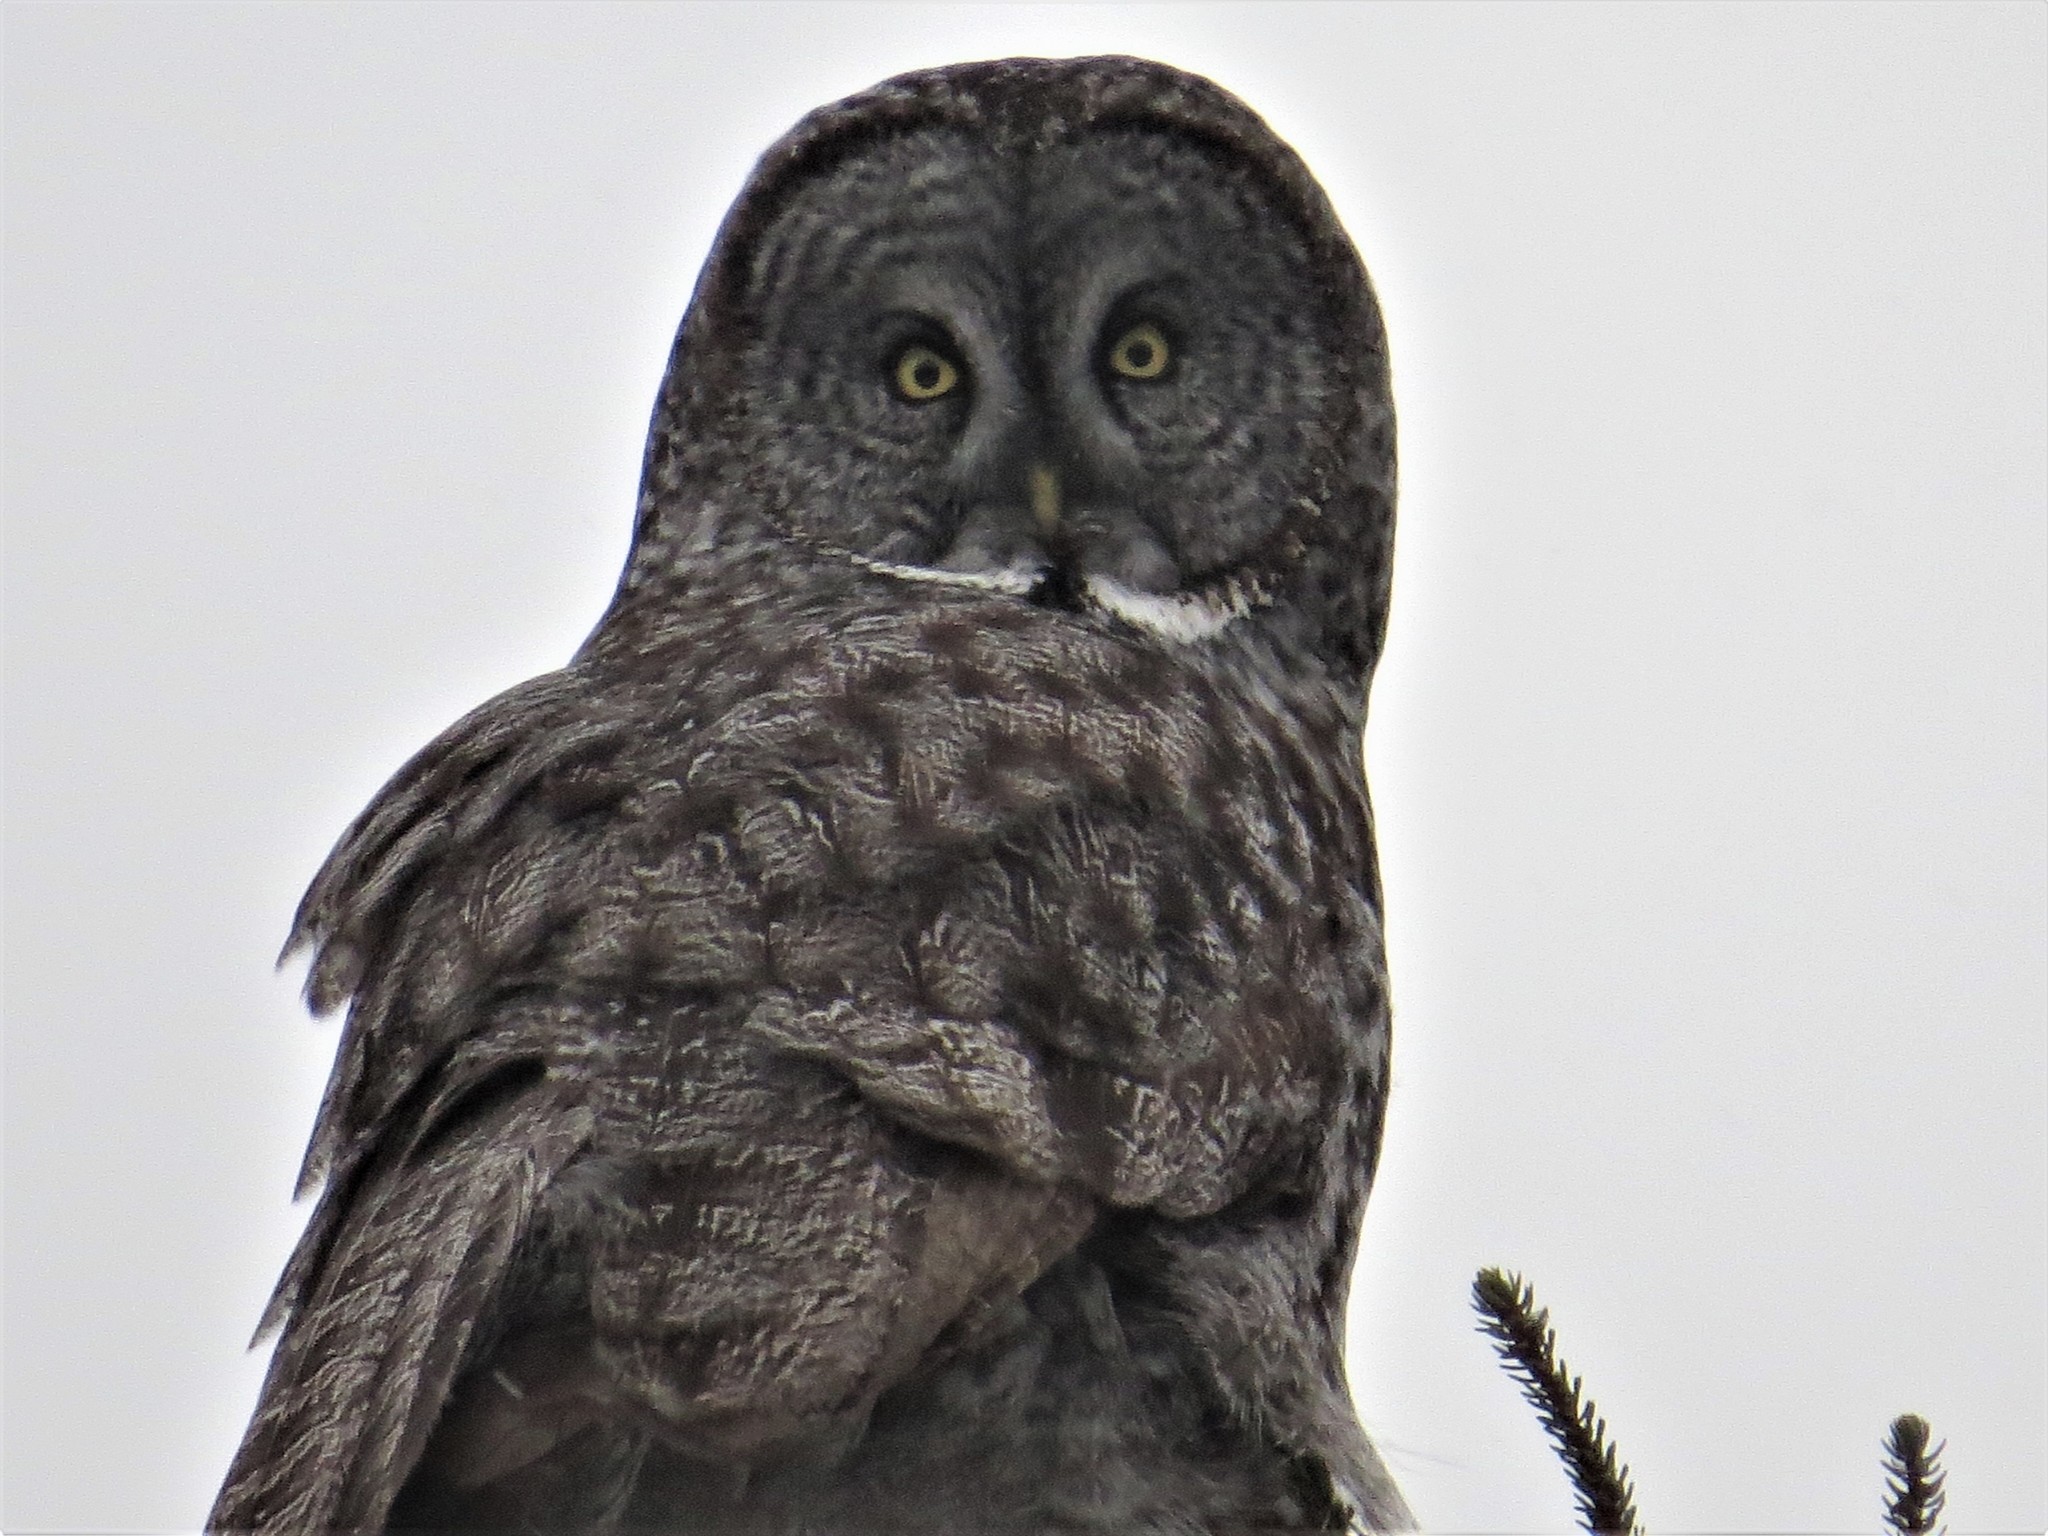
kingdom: Animalia
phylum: Chordata
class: Aves
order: Strigiformes
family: Strigidae
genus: Strix
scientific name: Strix nebulosa
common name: Great grey owl
